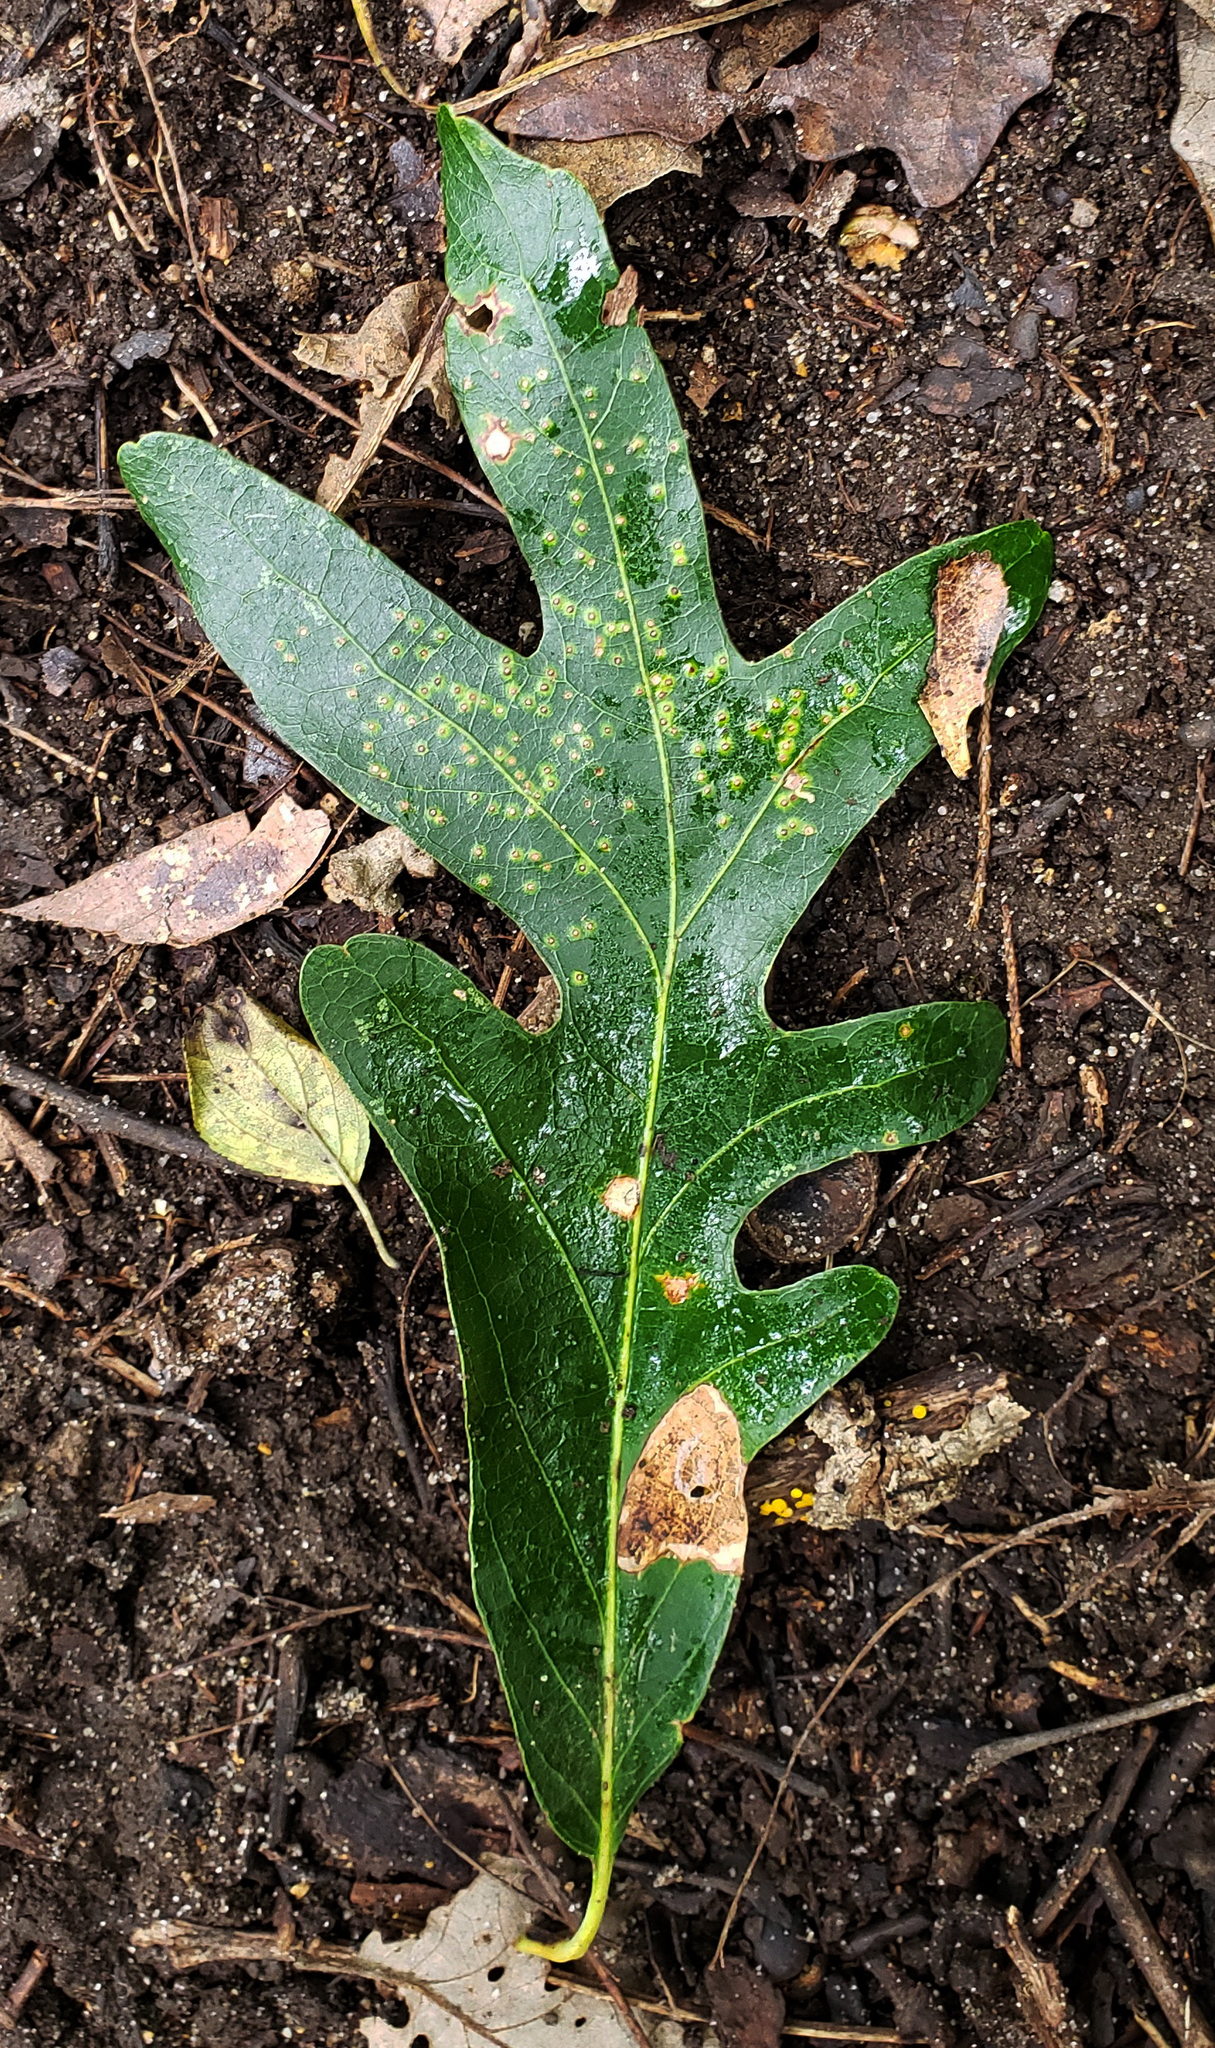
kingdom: Plantae
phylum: Tracheophyta
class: Magnoliopsida
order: Fagales
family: Fagaceae
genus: Quercus
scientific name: Quercus alba
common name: White oak
